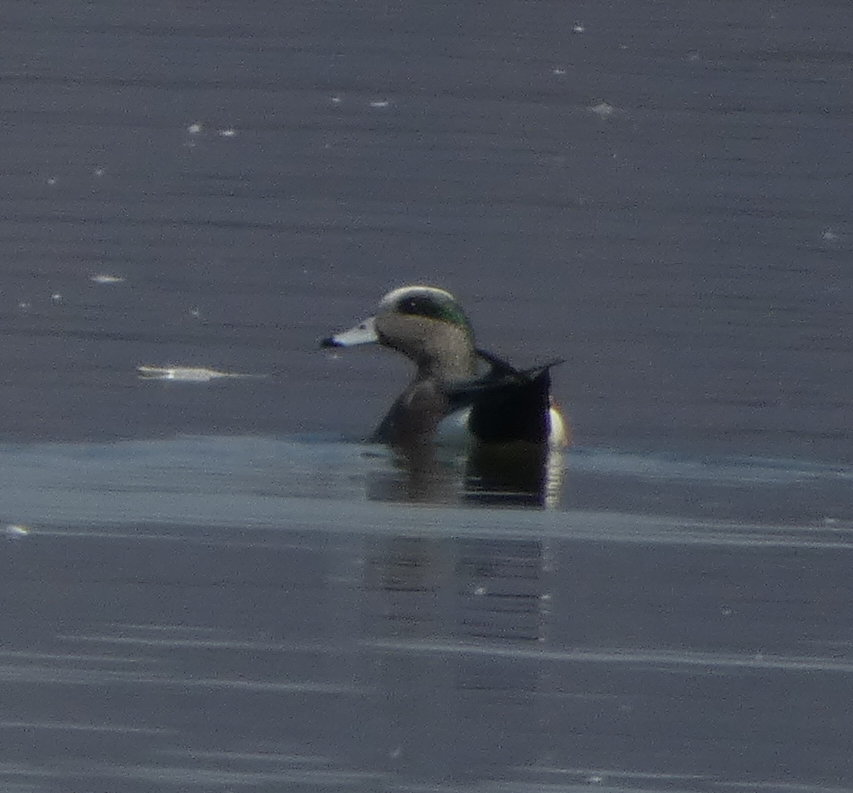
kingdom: Animalia
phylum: Chordata
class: Aves
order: Anseriformes
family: Anatidae
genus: Mareca
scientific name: Mareca americana
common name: American wigeon
